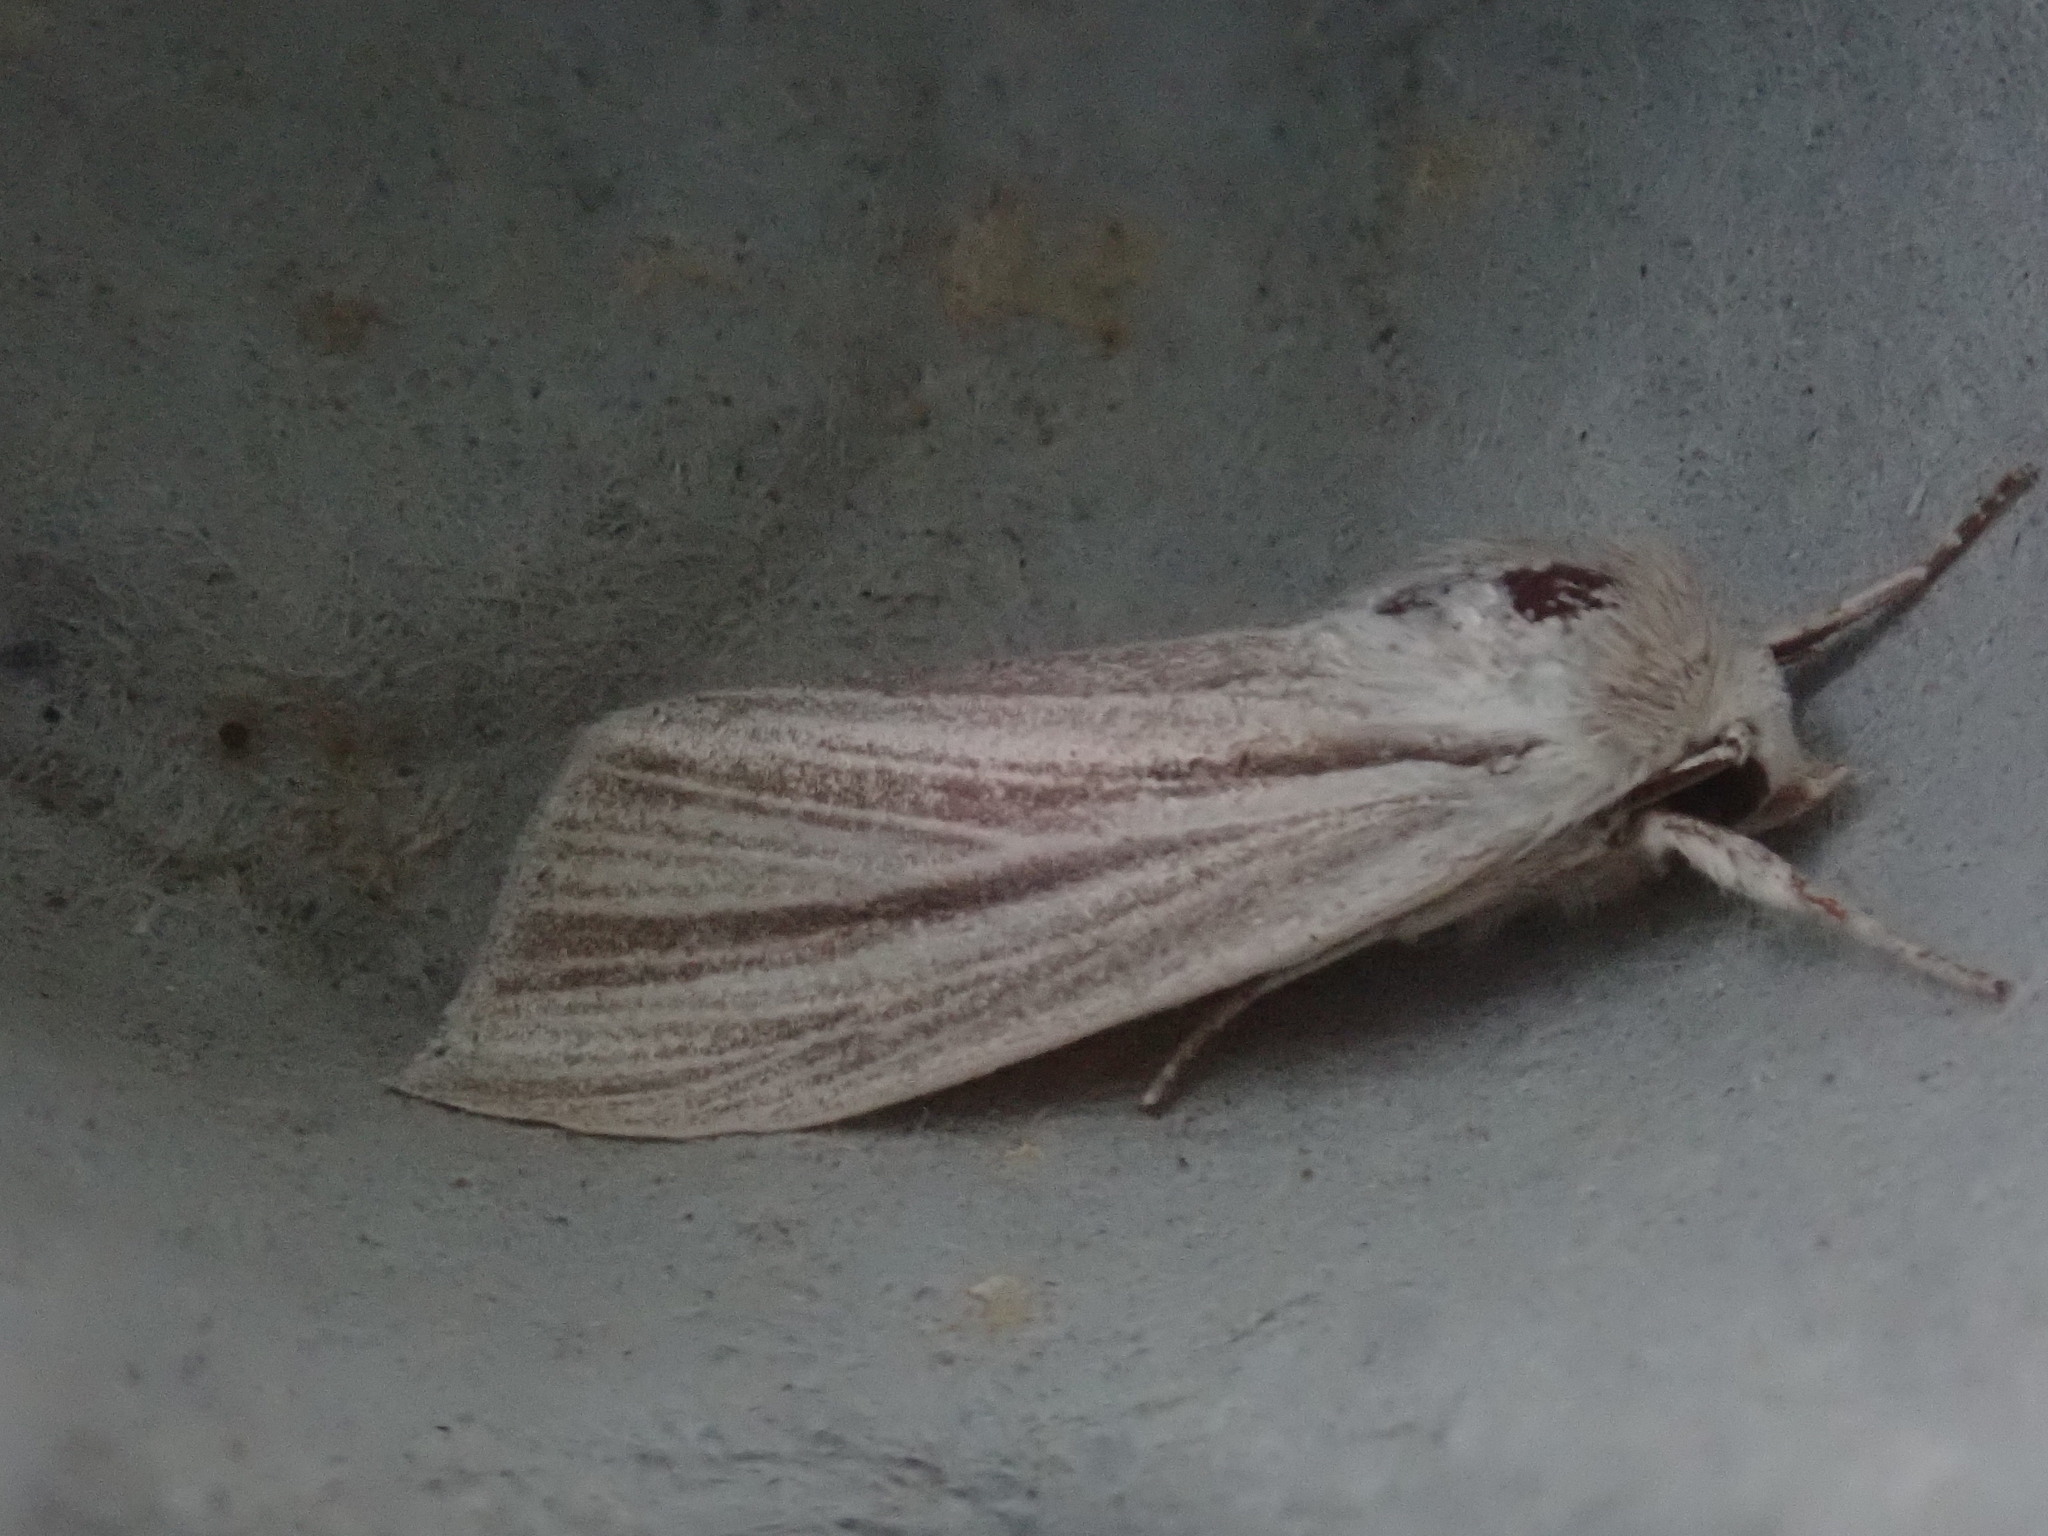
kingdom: Animalia
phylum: Arthropoda
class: Insecta
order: Lepidoptera
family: Noctuidae
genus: Acronicta
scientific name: Acronicta insularis
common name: Henry's marsh moth
